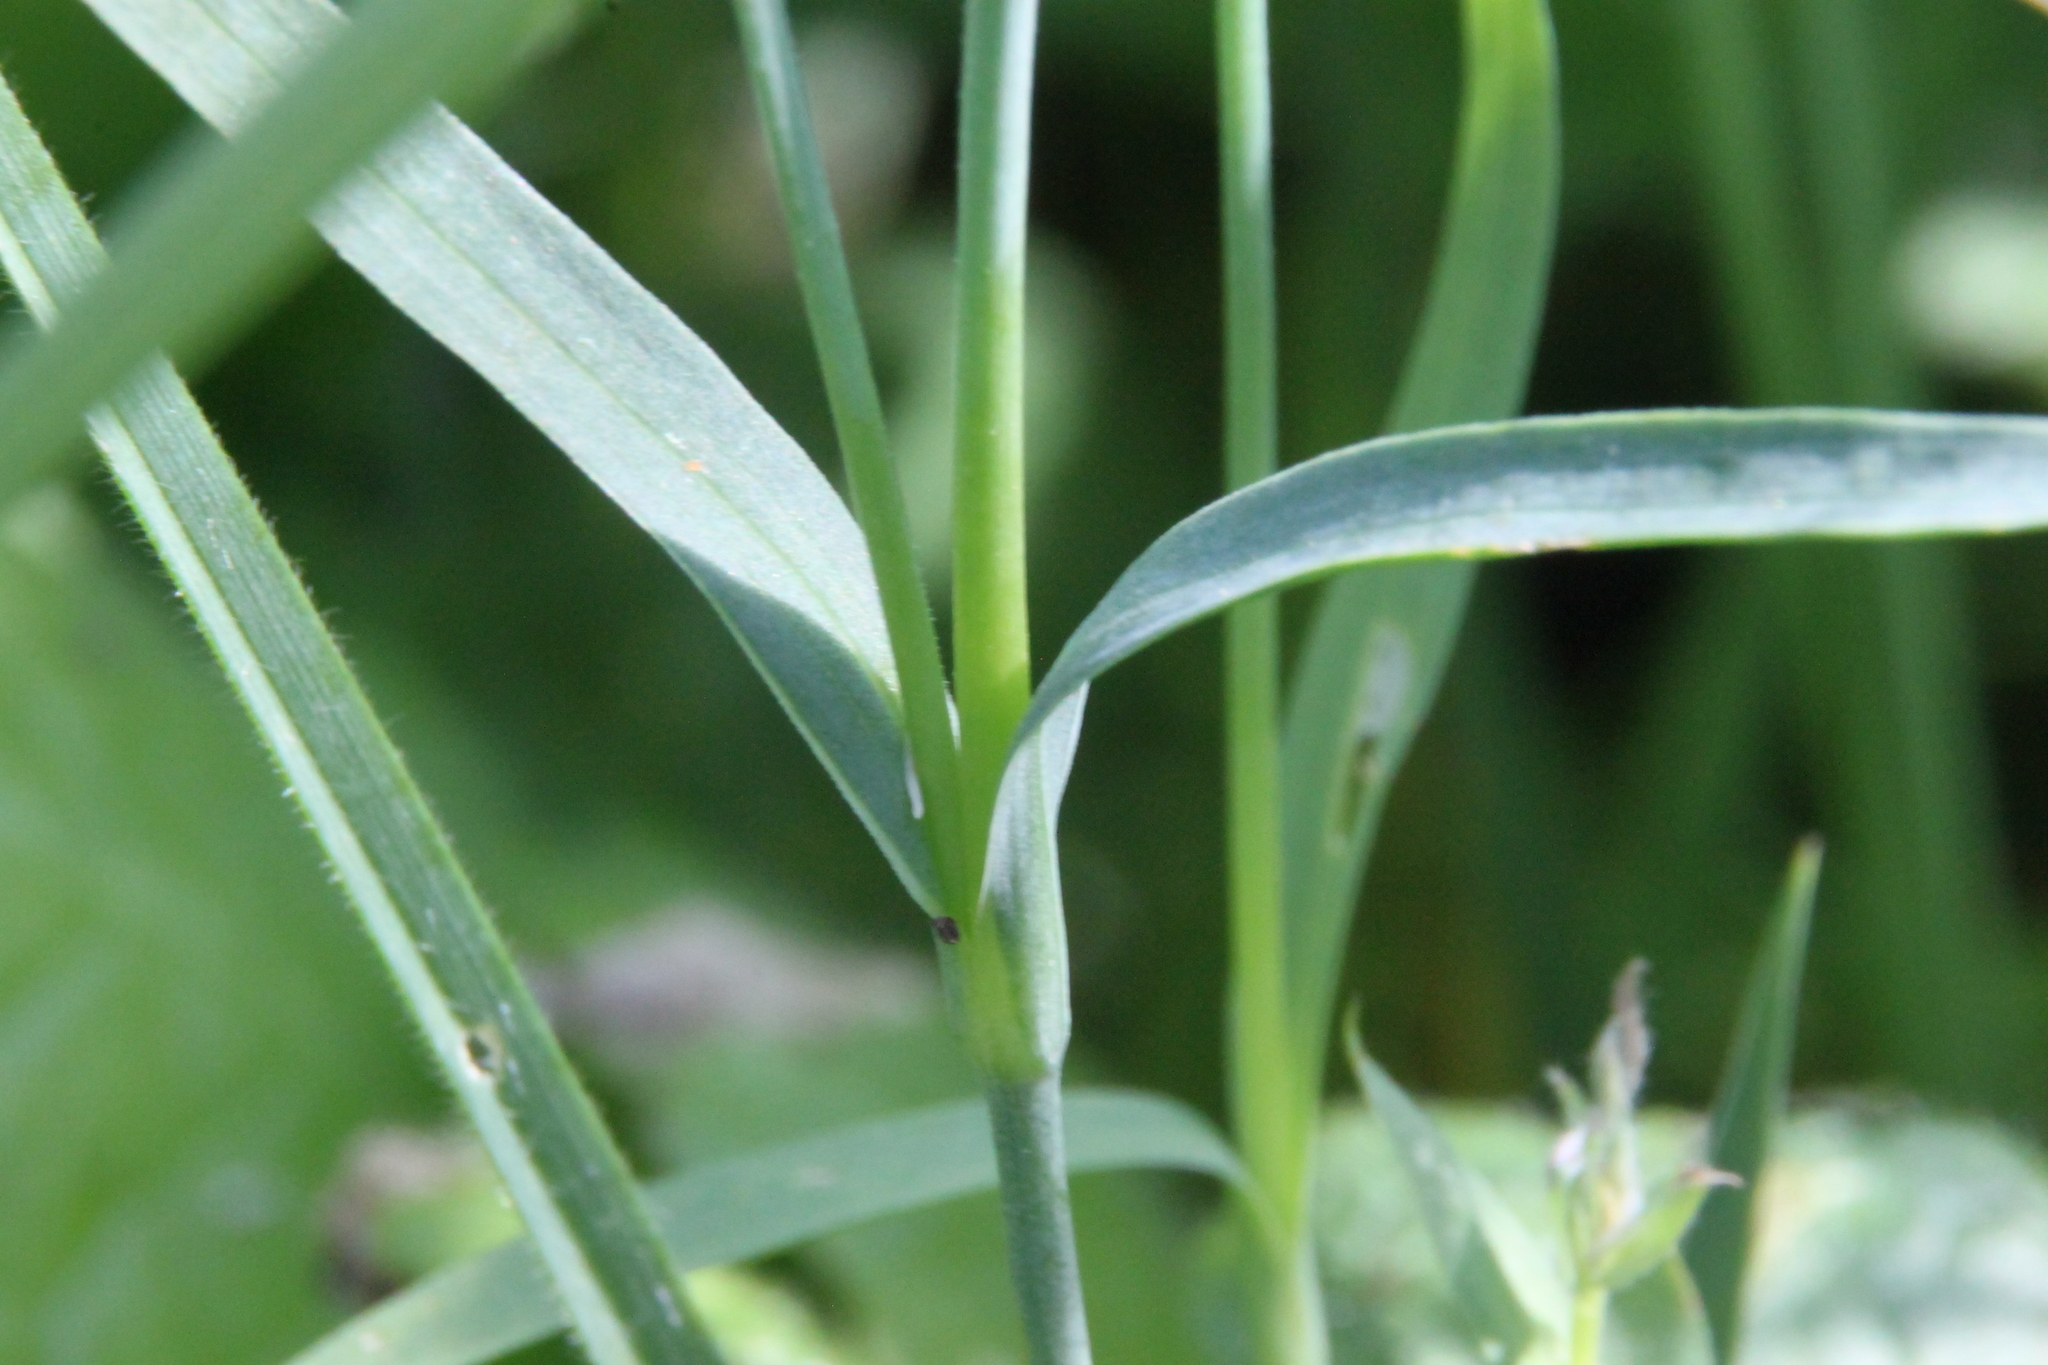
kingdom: Plantae
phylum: Tracheophyta
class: Magnoliopsida
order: Caryophyllales
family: Caryophyllaceae
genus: Dianthus
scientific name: Dianthus chinensis
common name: Rainbow pink
